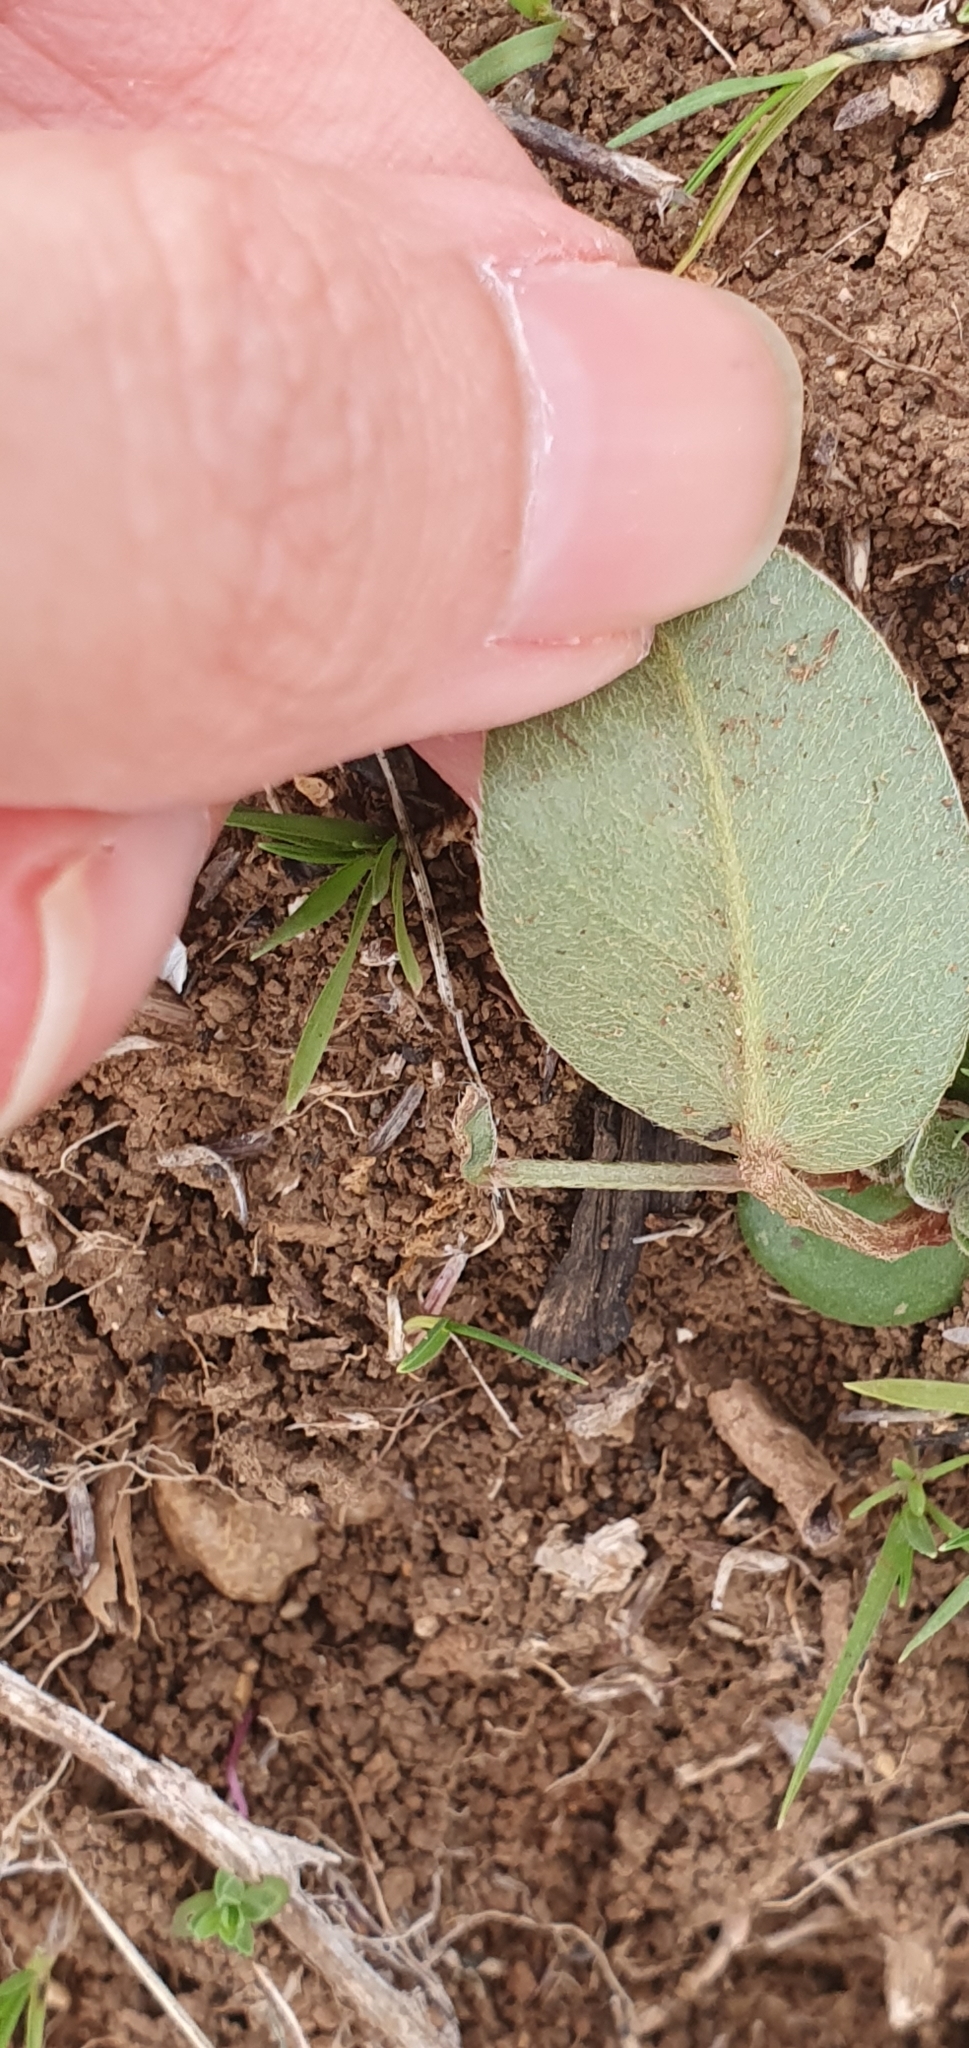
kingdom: Plantae
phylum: Tracheophyta
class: Magnoliopsida
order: Fabales
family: Fabaceae
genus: Anthyllis
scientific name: Anthyllis vulneraria
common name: Kidney vetch
